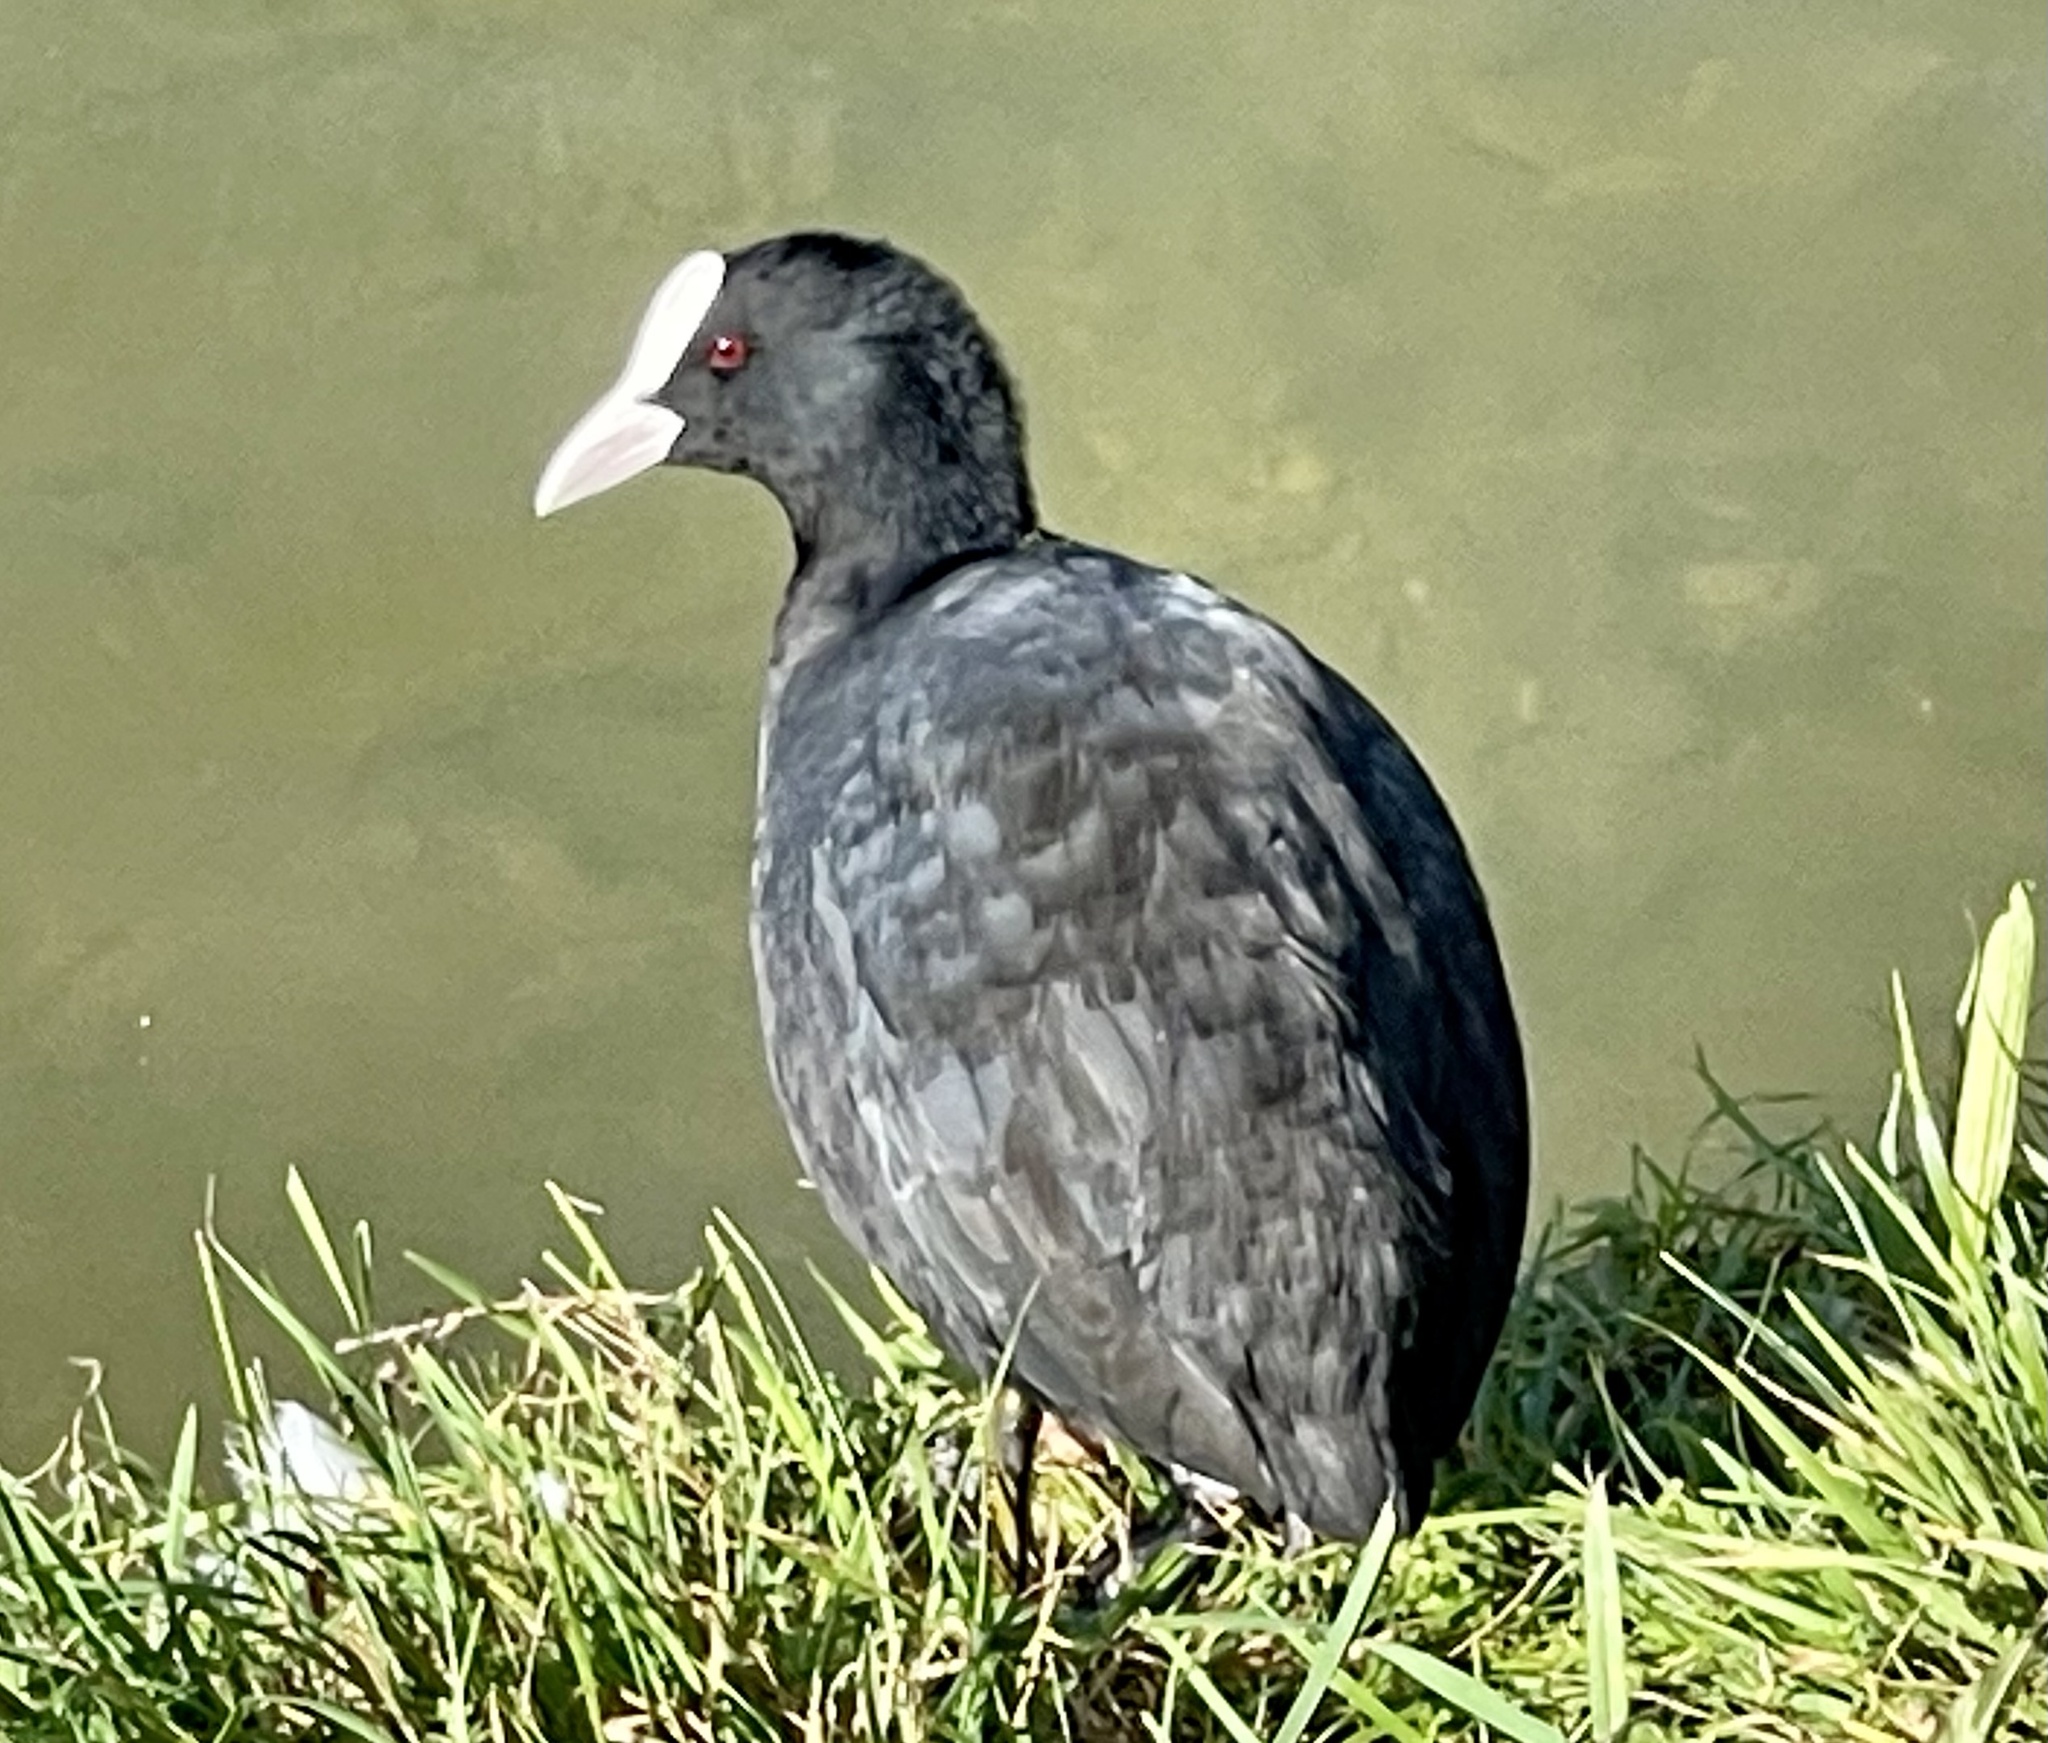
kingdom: Animalia
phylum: Chordata
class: Aves
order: Gruiformes
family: Rallidae
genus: Fulica
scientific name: Fulica atra
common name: Eurasian coot
